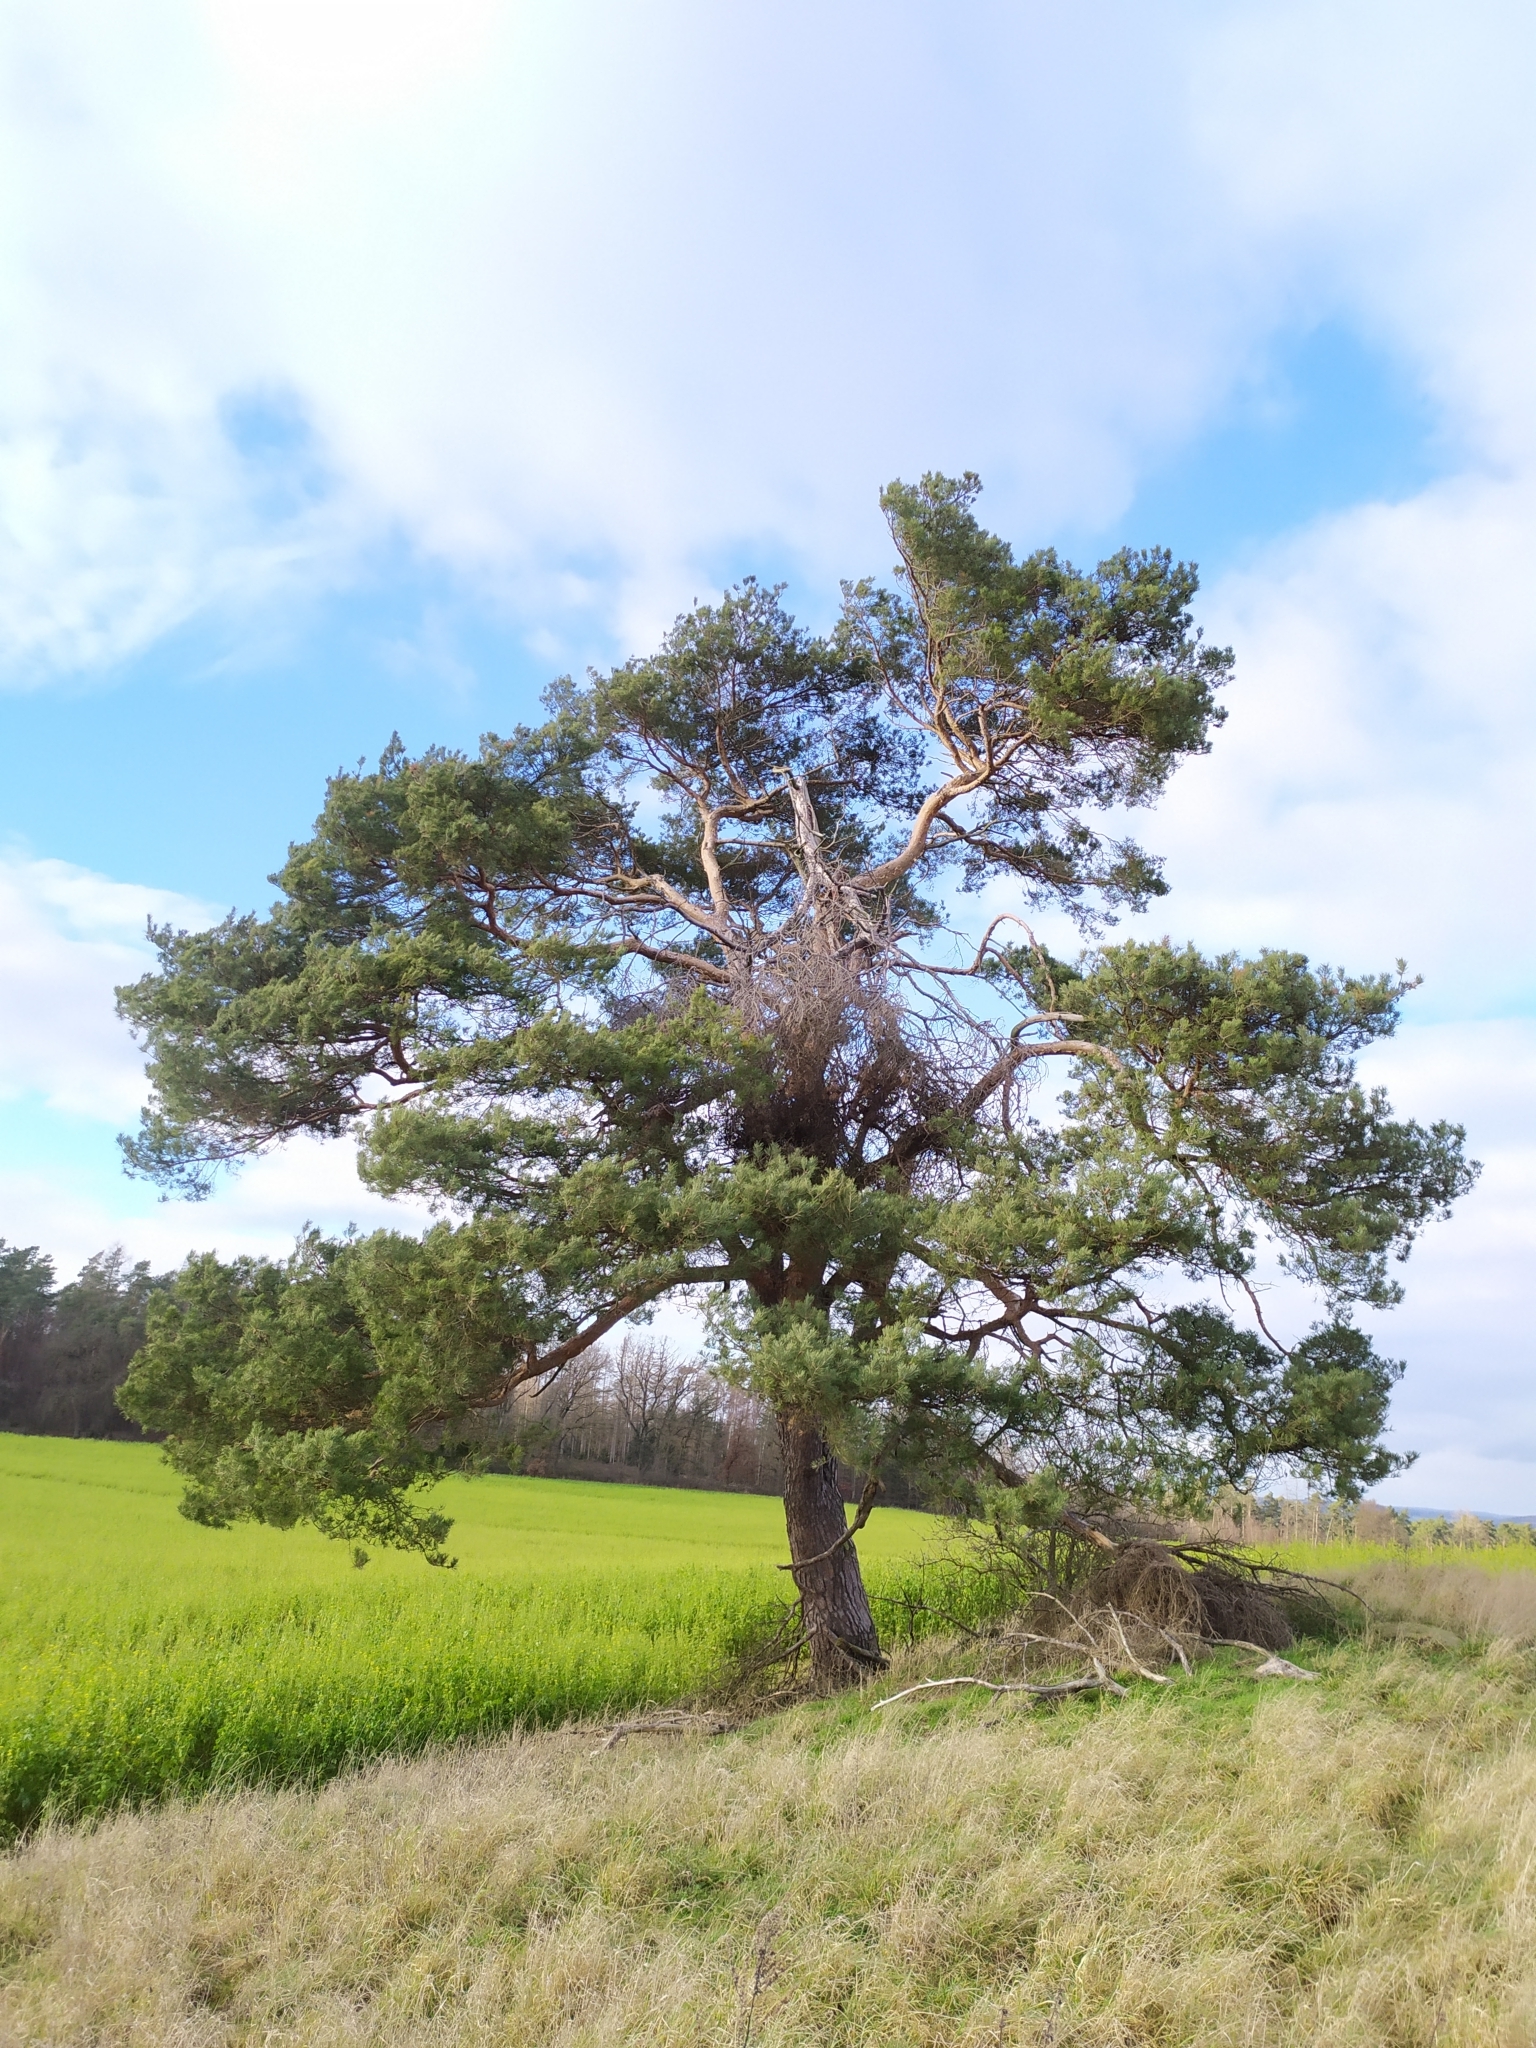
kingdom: Plantae
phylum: Tracheophyta
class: Pinopsida
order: Pinales
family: Pinaceae
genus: Pinus
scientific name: Pinus sylvestris
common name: Scots pine
